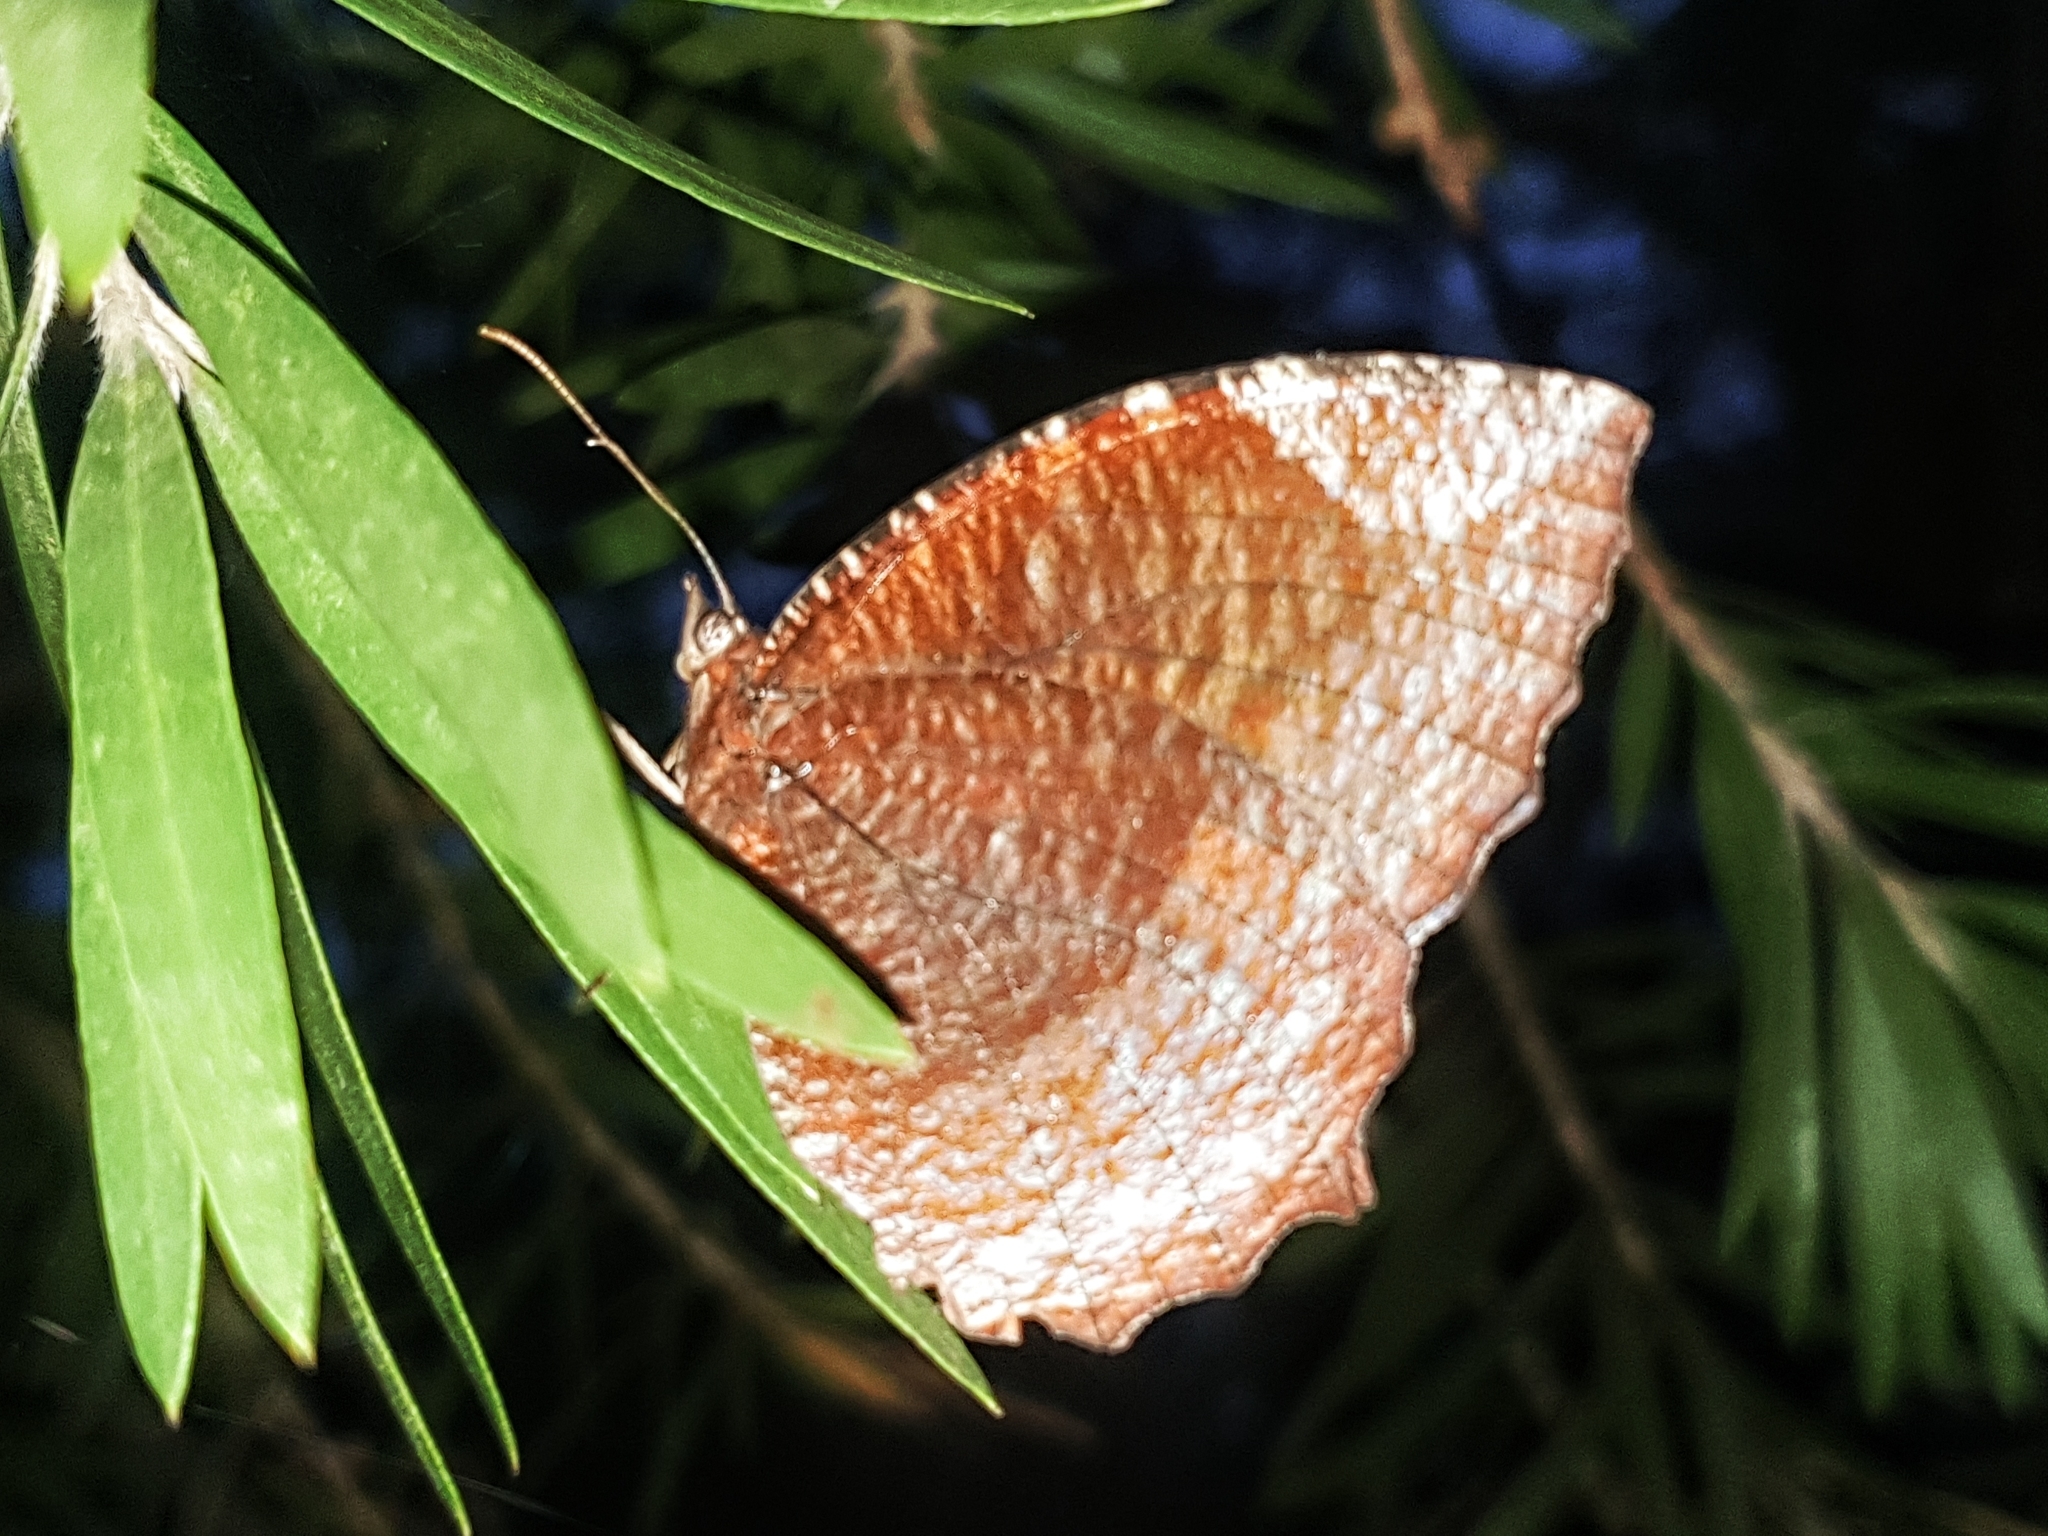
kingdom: Animalia
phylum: Arthropoda
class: Insecta
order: Lepidoptera
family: Nymphalidae
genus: Elymnias
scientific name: Elymnias hypermnestra
